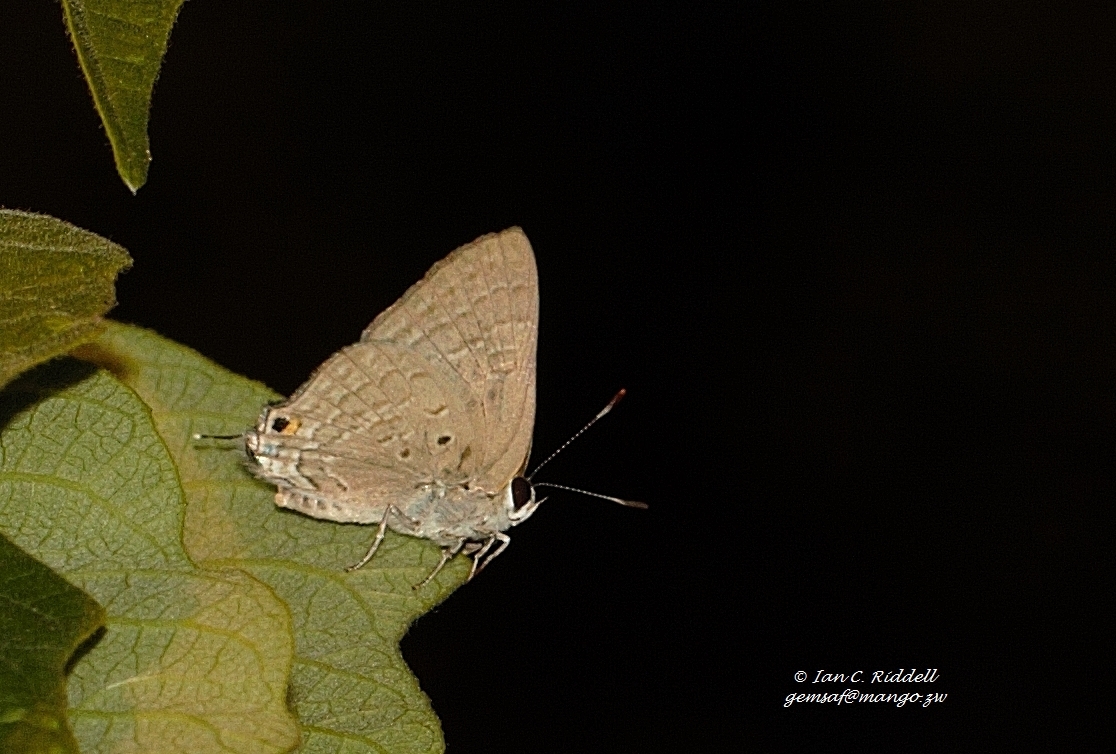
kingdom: Animalia
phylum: Arthropoda
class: Insecta
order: Lepidoptera
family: Lycaenidae
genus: Deudorix
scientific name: Deudorix antalus
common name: Brown playboy
